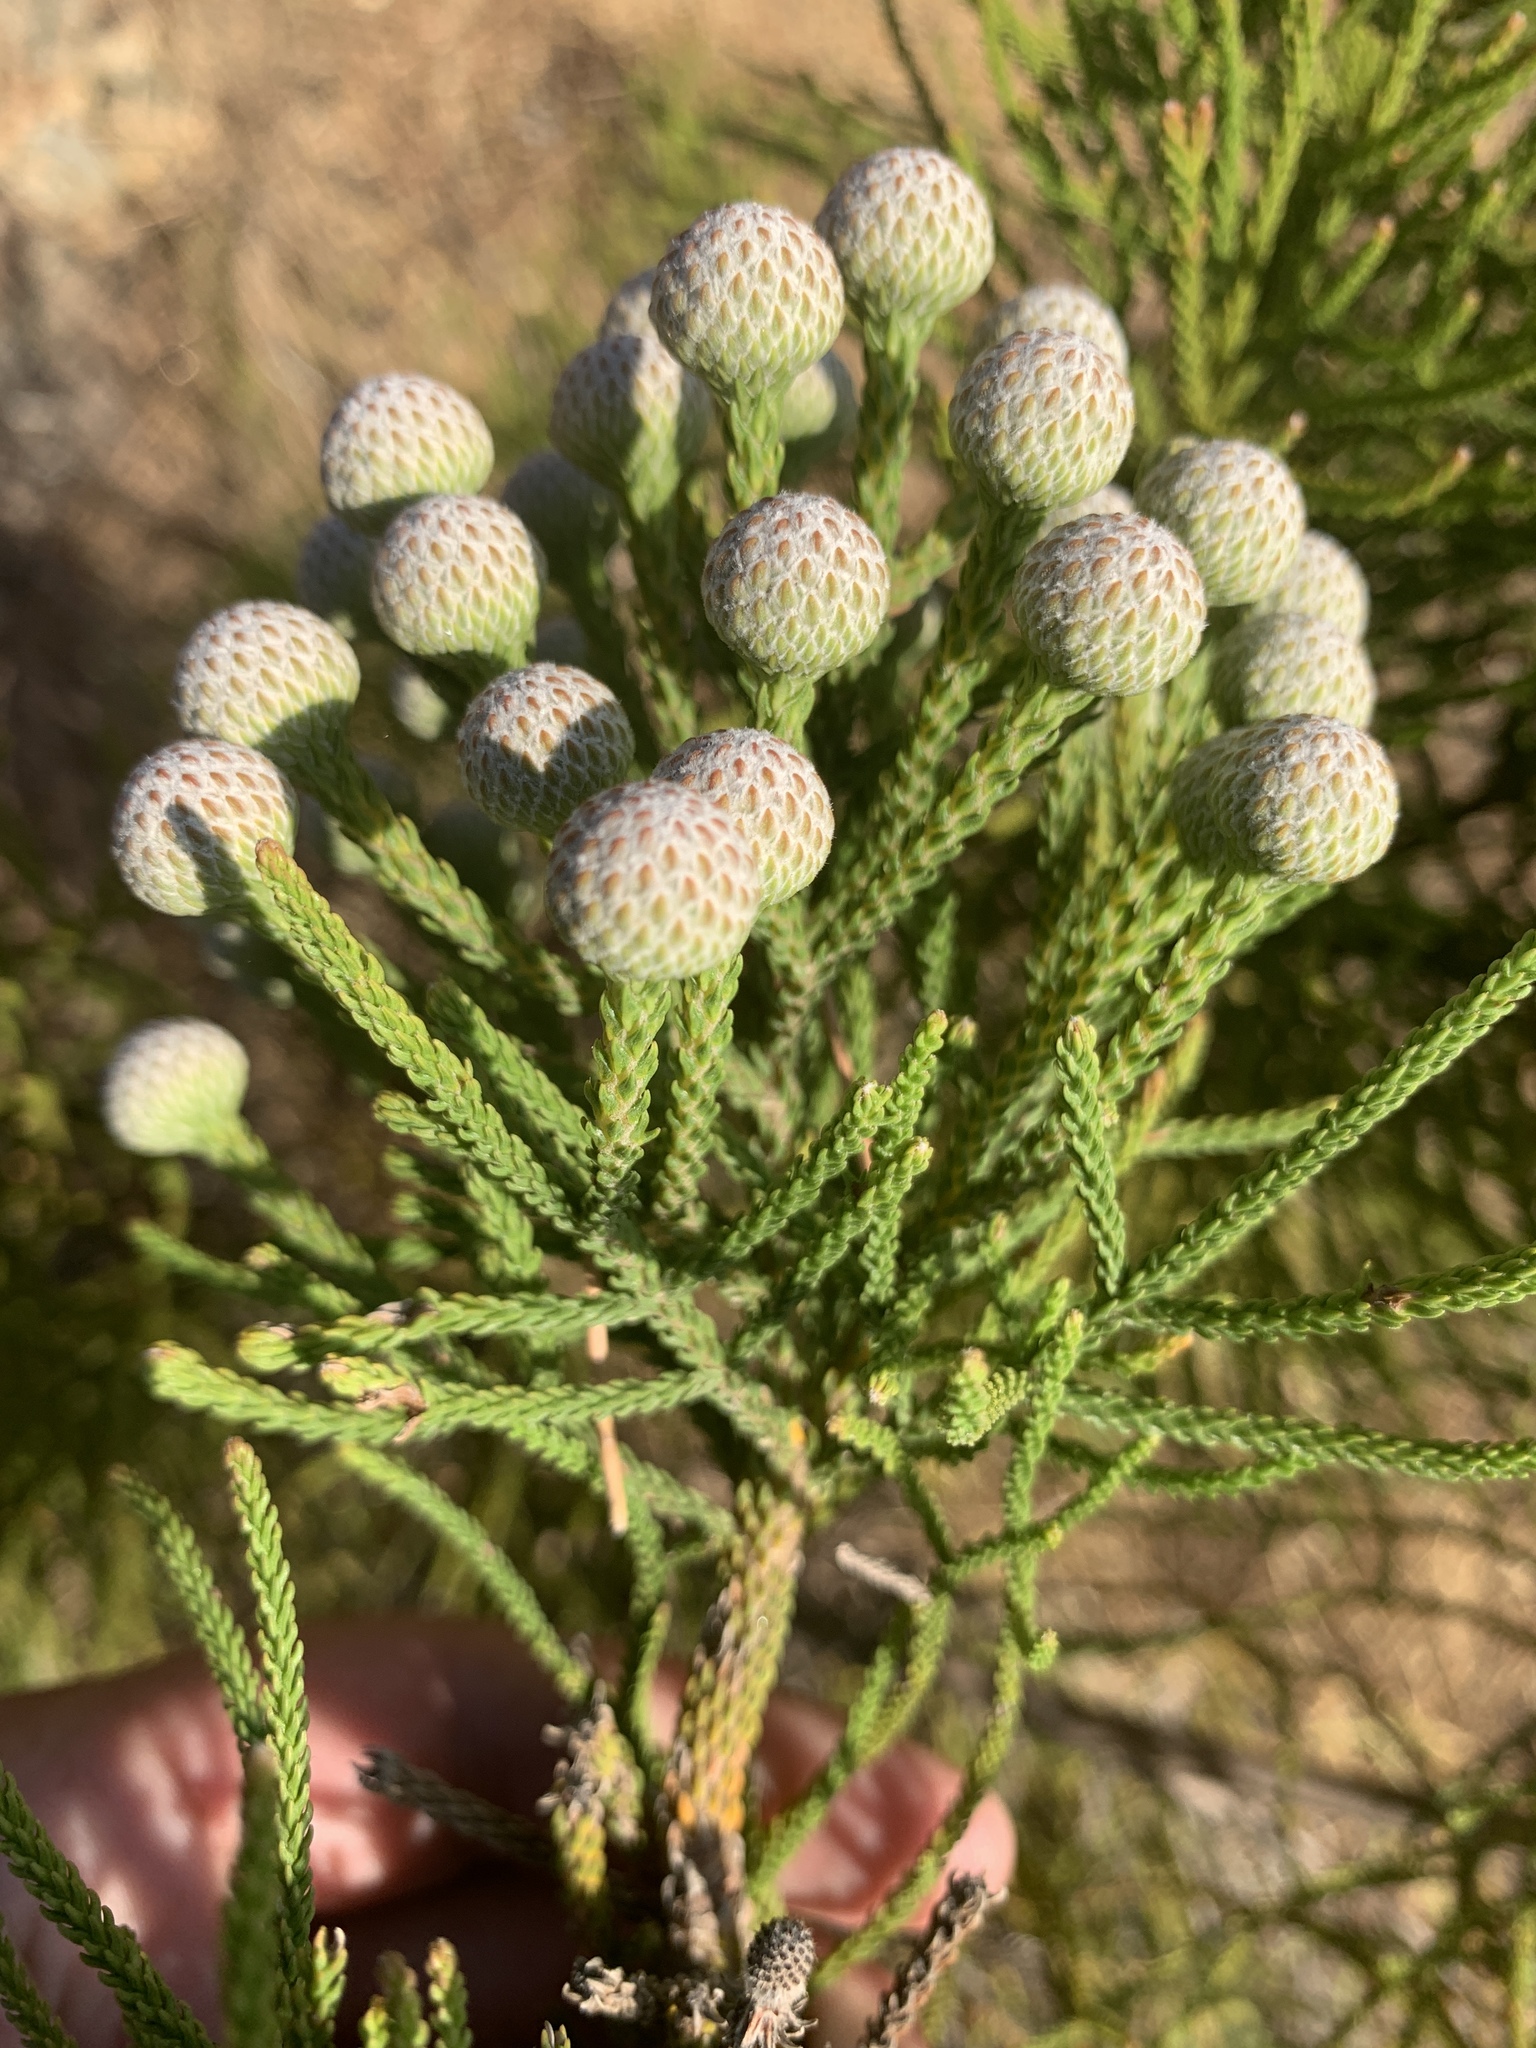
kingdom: Plantae
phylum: Tracheophyta
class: Magnoliopsida
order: Bruniales
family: Bruniaceae
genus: Brunia
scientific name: Brunia noduliflora
